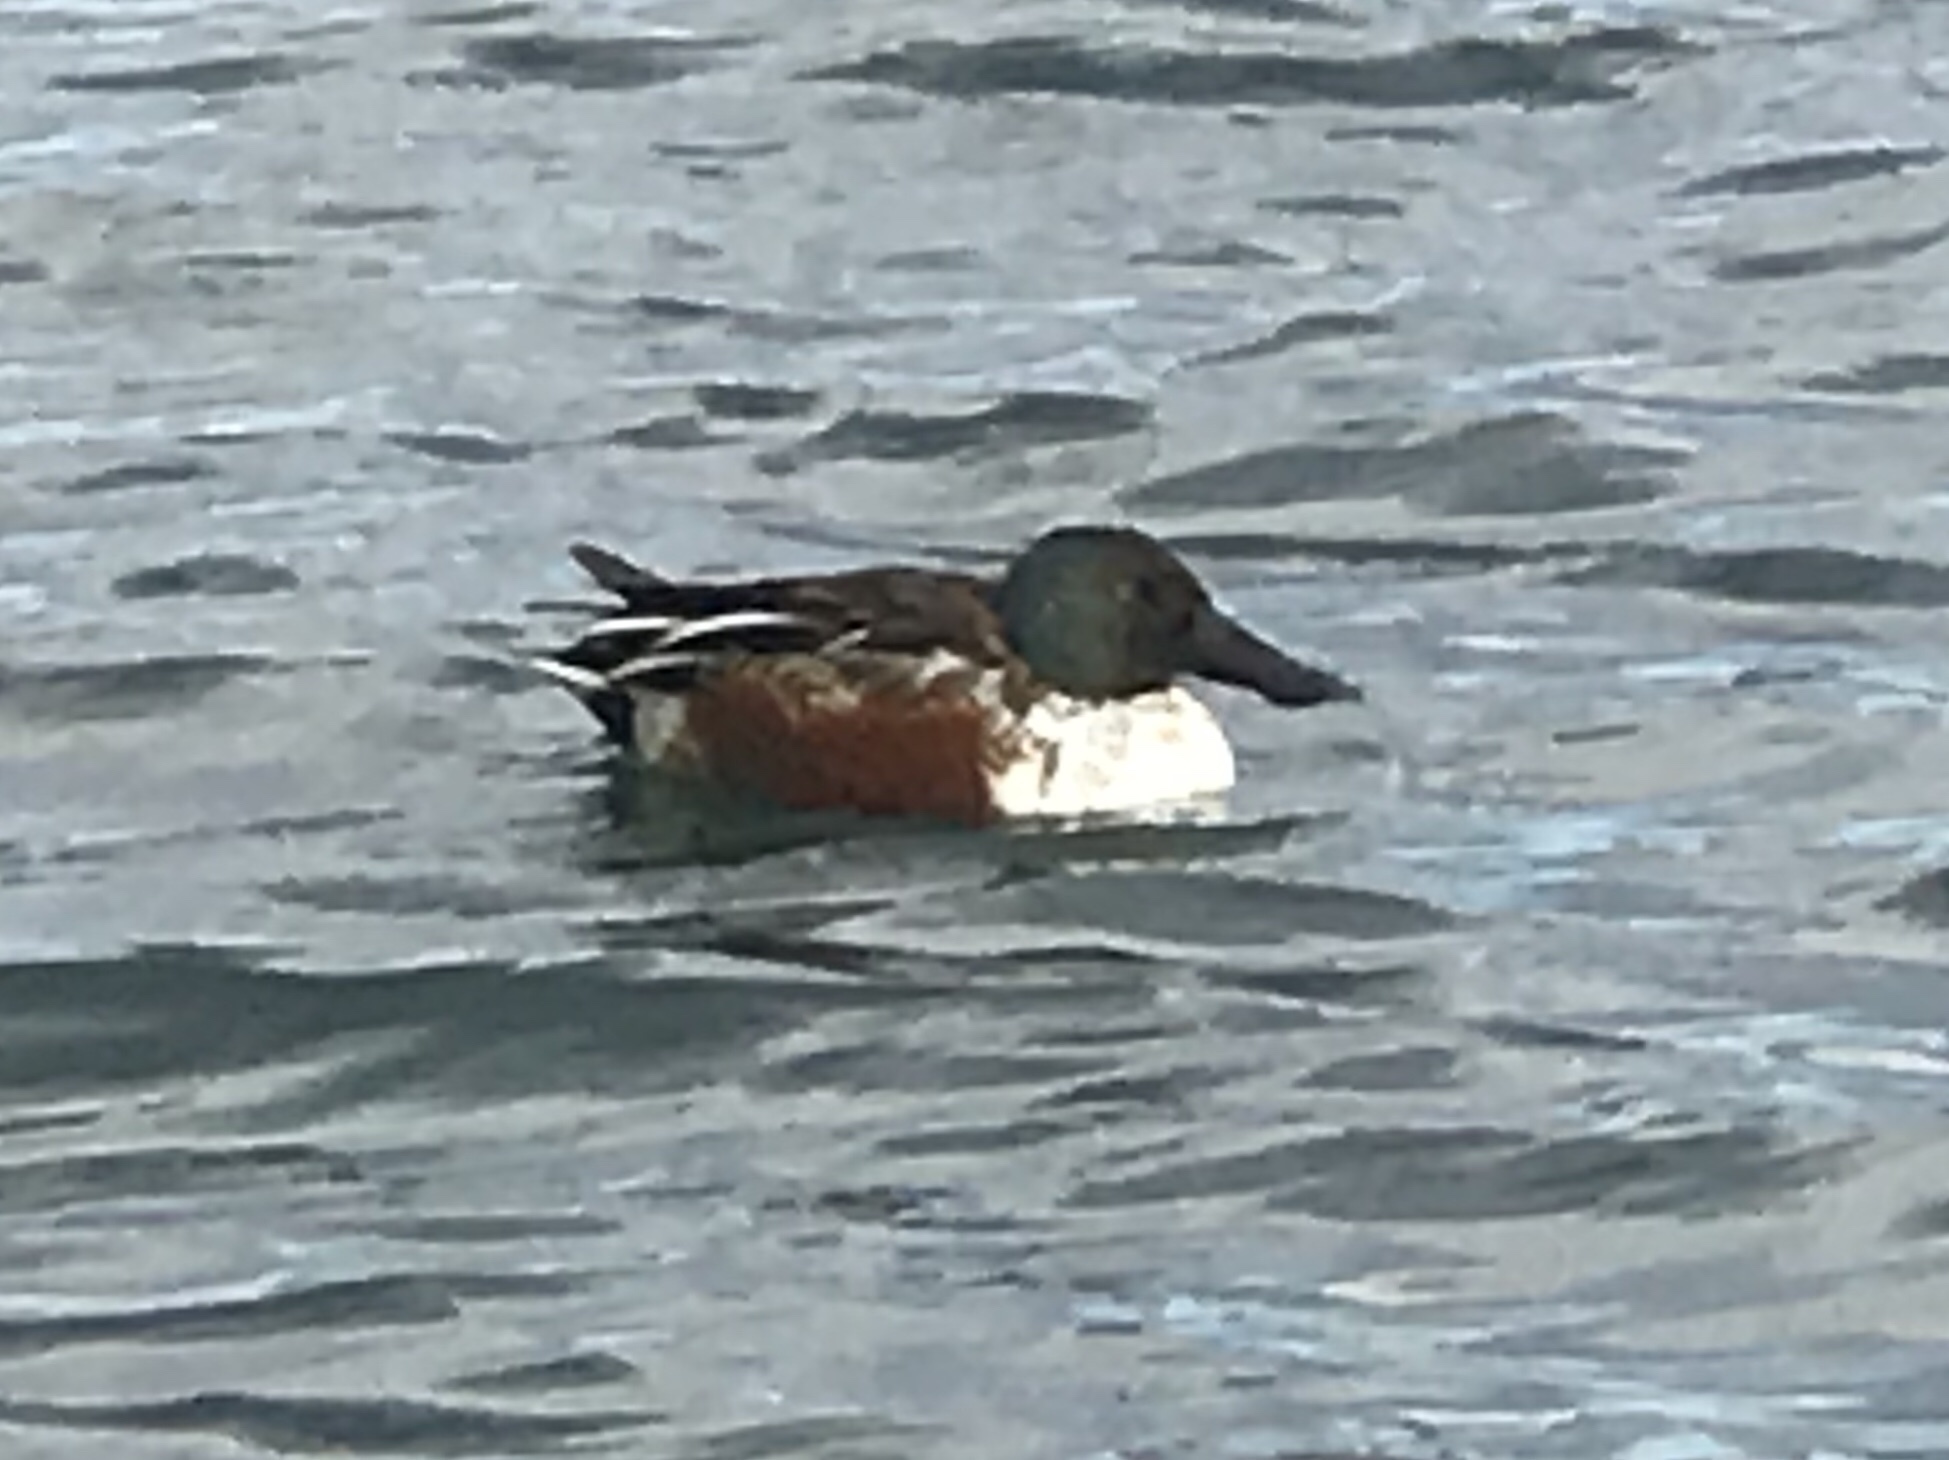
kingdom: Animalia
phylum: Chordata
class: Aves
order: Anseriformes
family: Anatidae
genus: Spatula
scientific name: Spatula clypeata
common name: Northern shoveler
